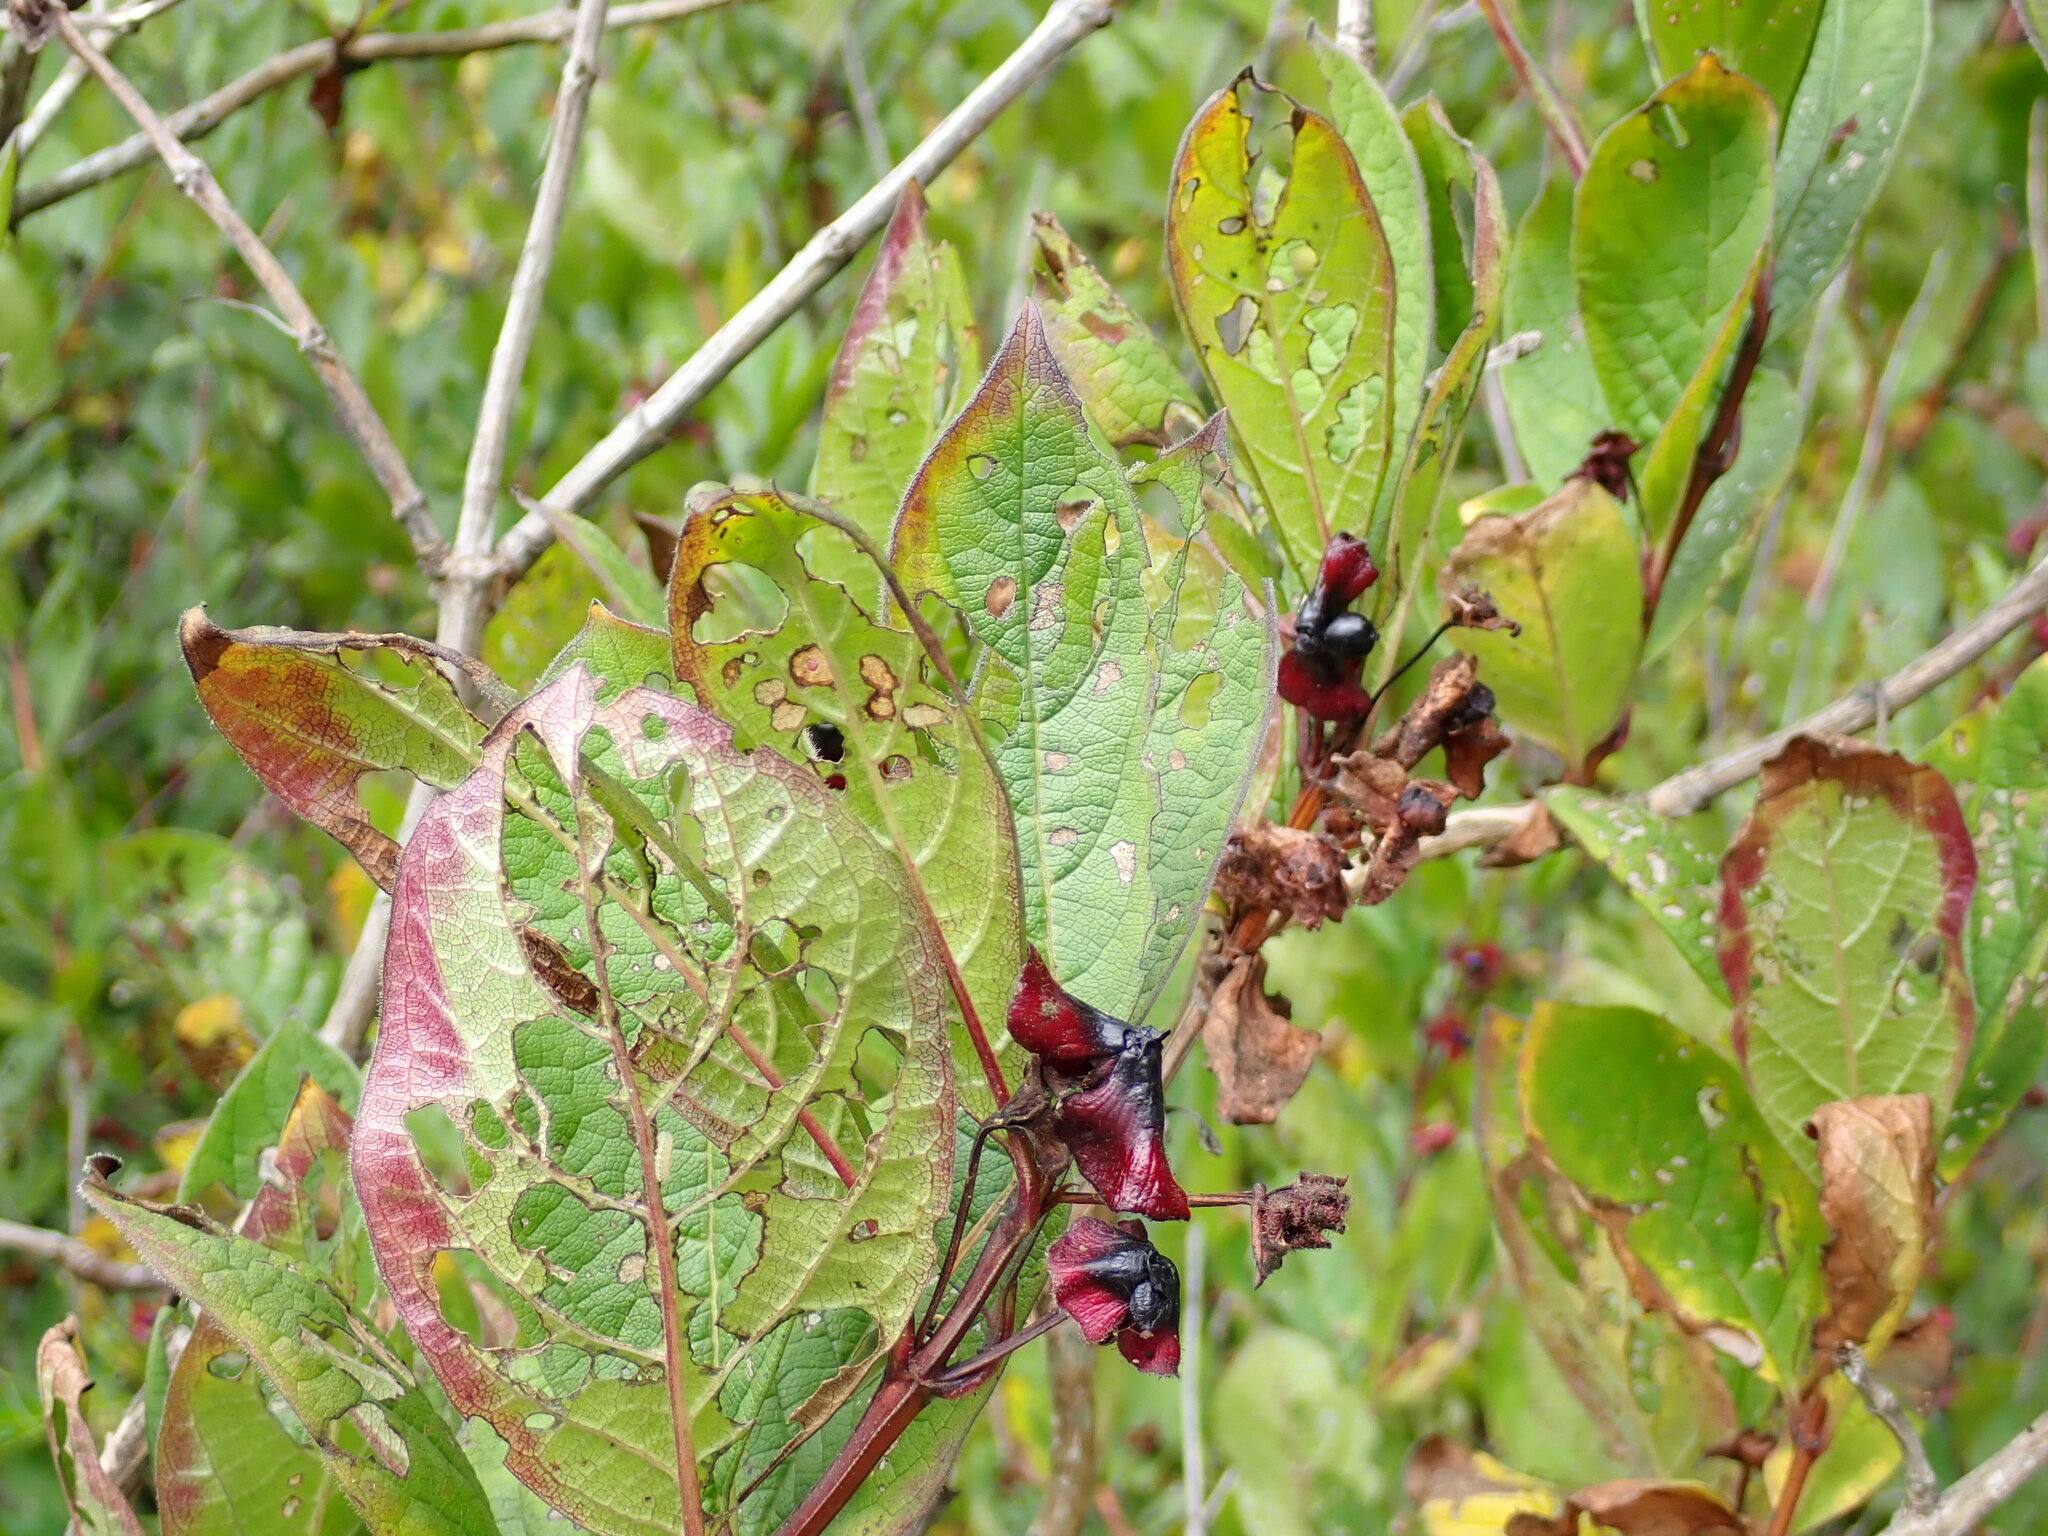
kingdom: Plantae
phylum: Tracheophyta
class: Magnoliopsida
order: Dipsacales
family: Caprifoliaceae
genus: Lonicera
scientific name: Lonicera involucrata
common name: Californian honeysuckle
